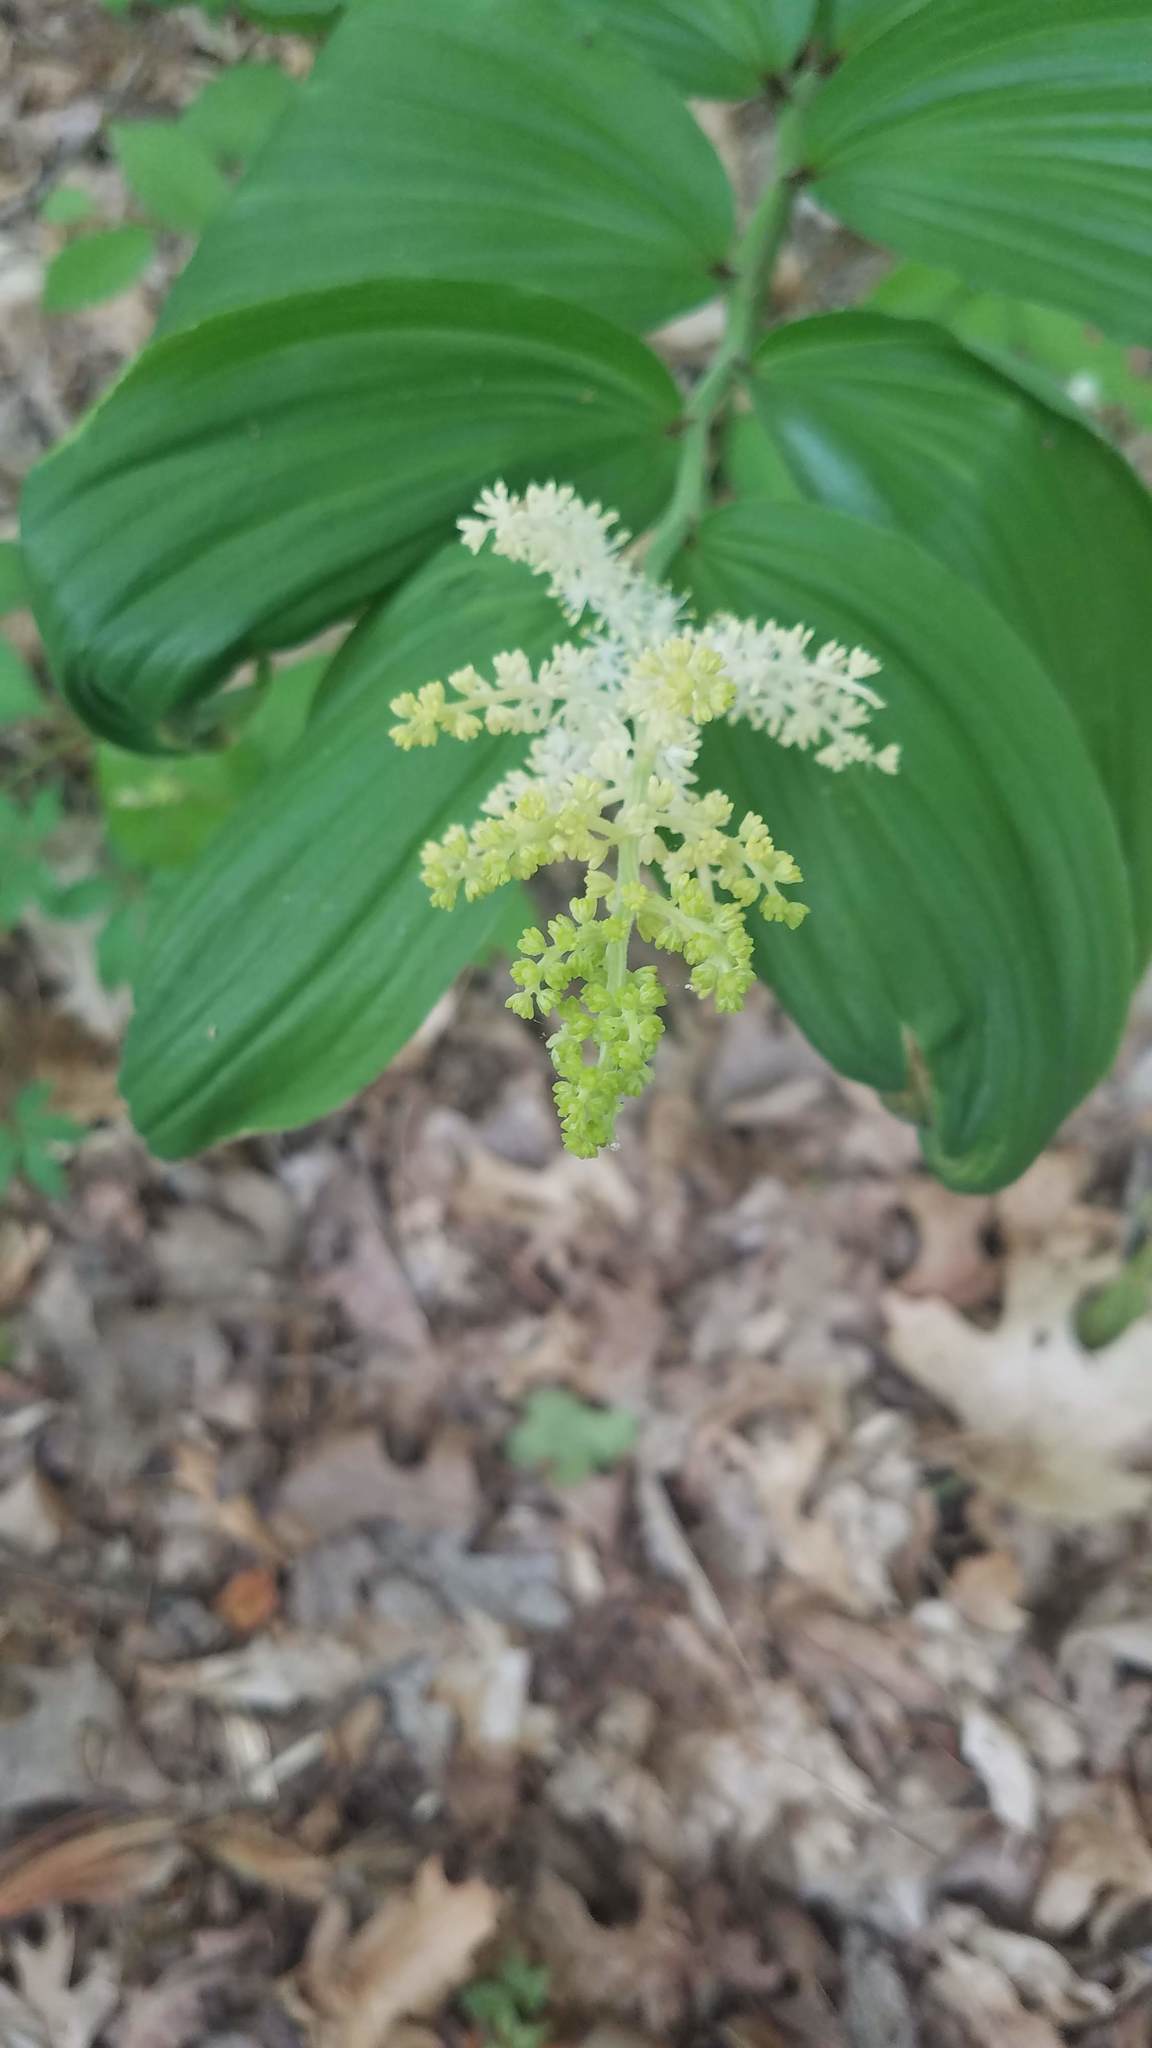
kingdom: Plantae
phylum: Tracheophyta
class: Liliopsida
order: Asparagales
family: Asparagaceae
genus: Maianthemum
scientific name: Maianthemum racemosum
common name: False spikenard
